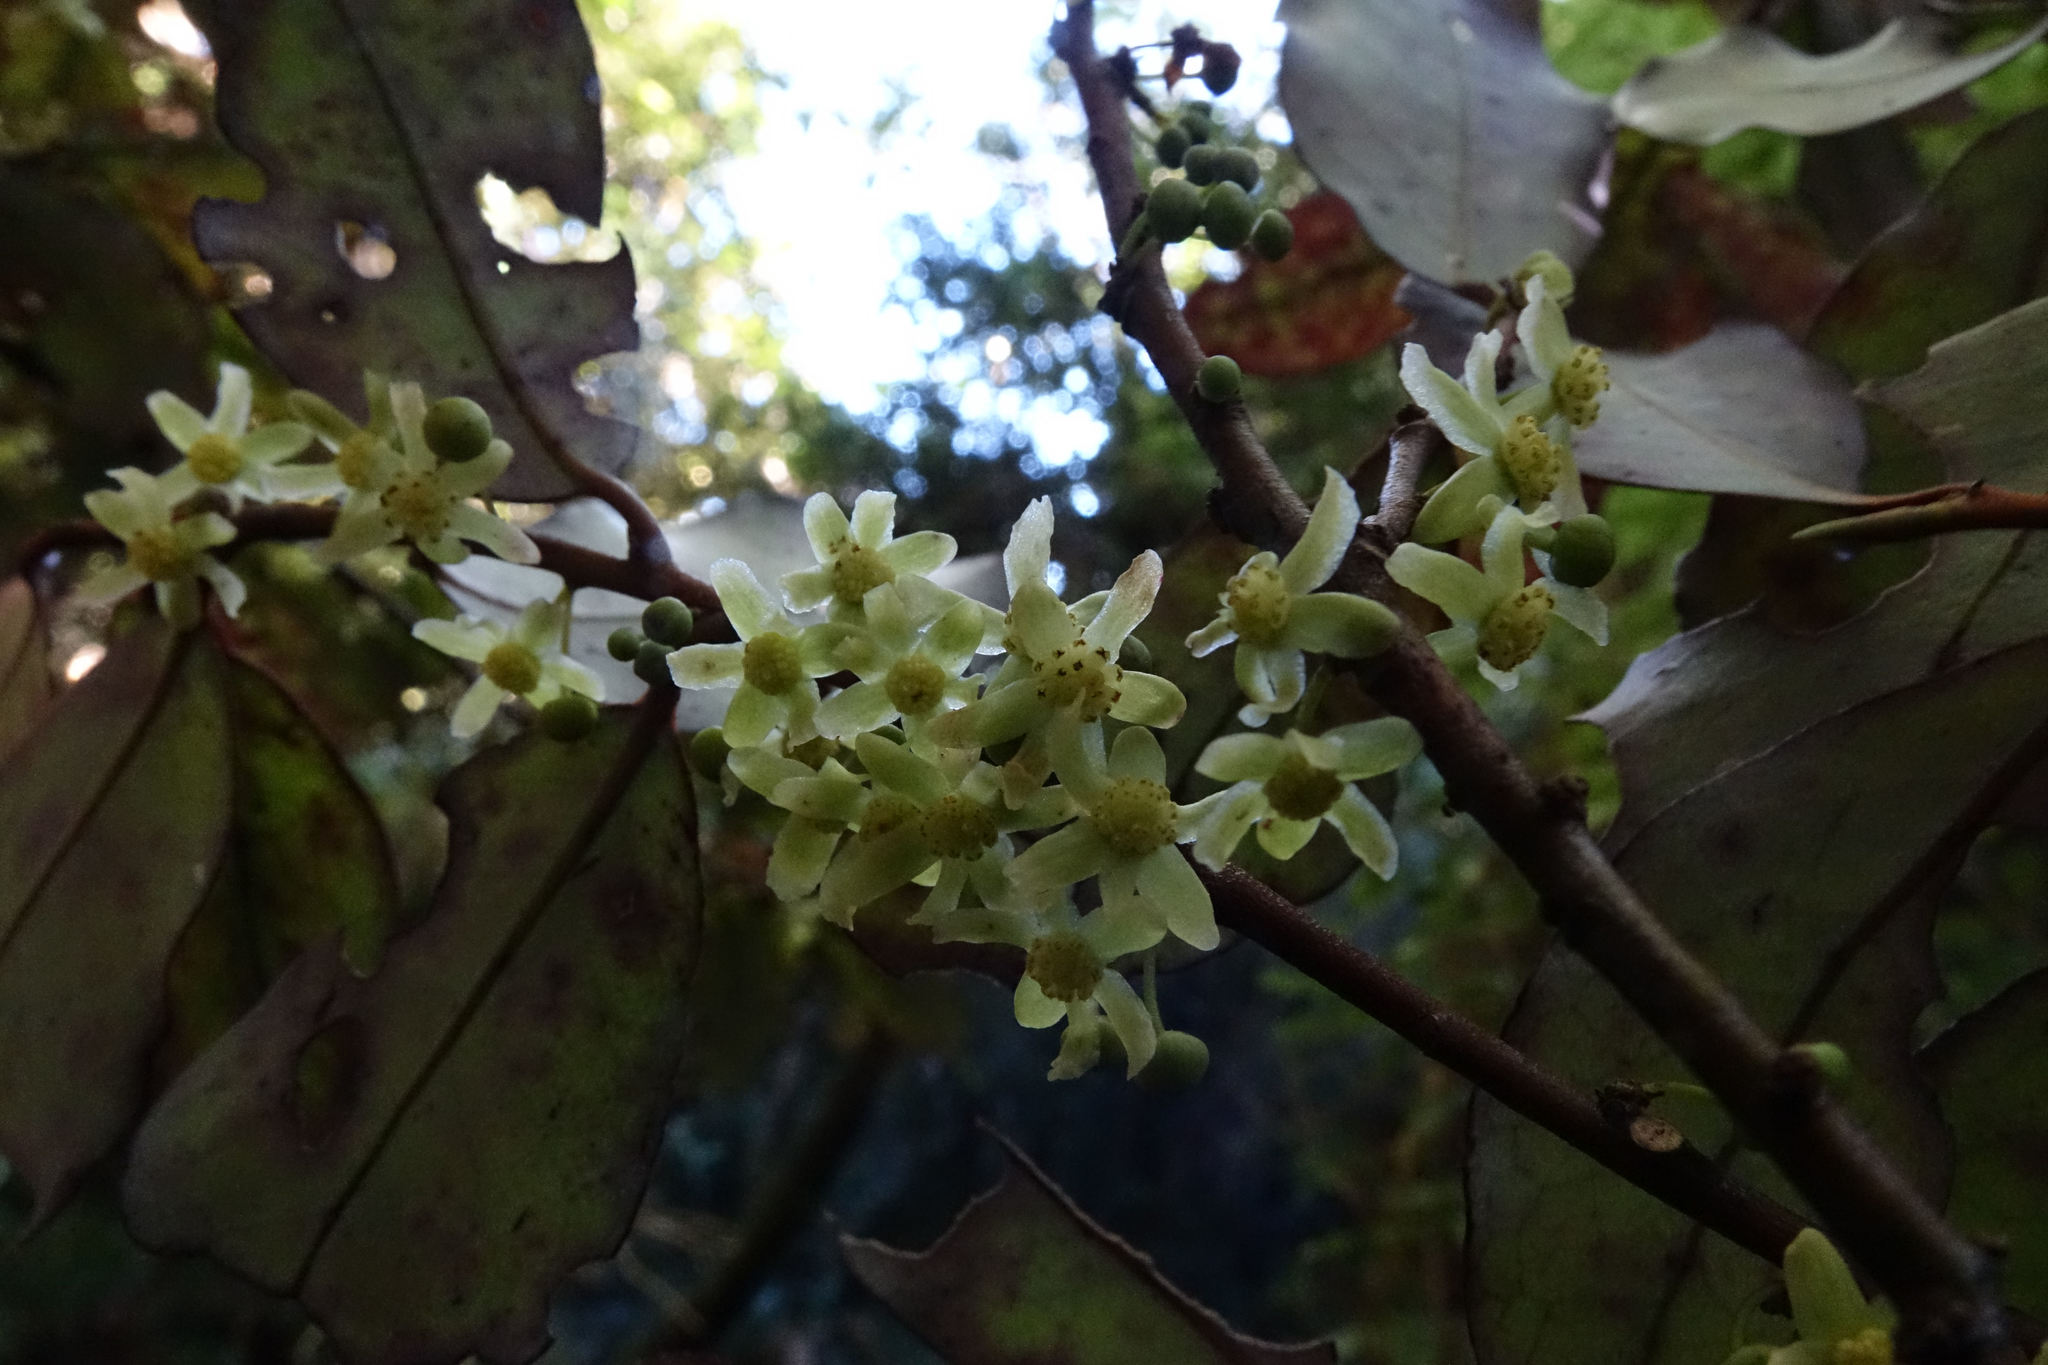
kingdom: Plantae
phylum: Tracheophyta
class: Magnoliopsida
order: Canellales
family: Winteraceae
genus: Pseudowintera
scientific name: Pseudowintera colorata
